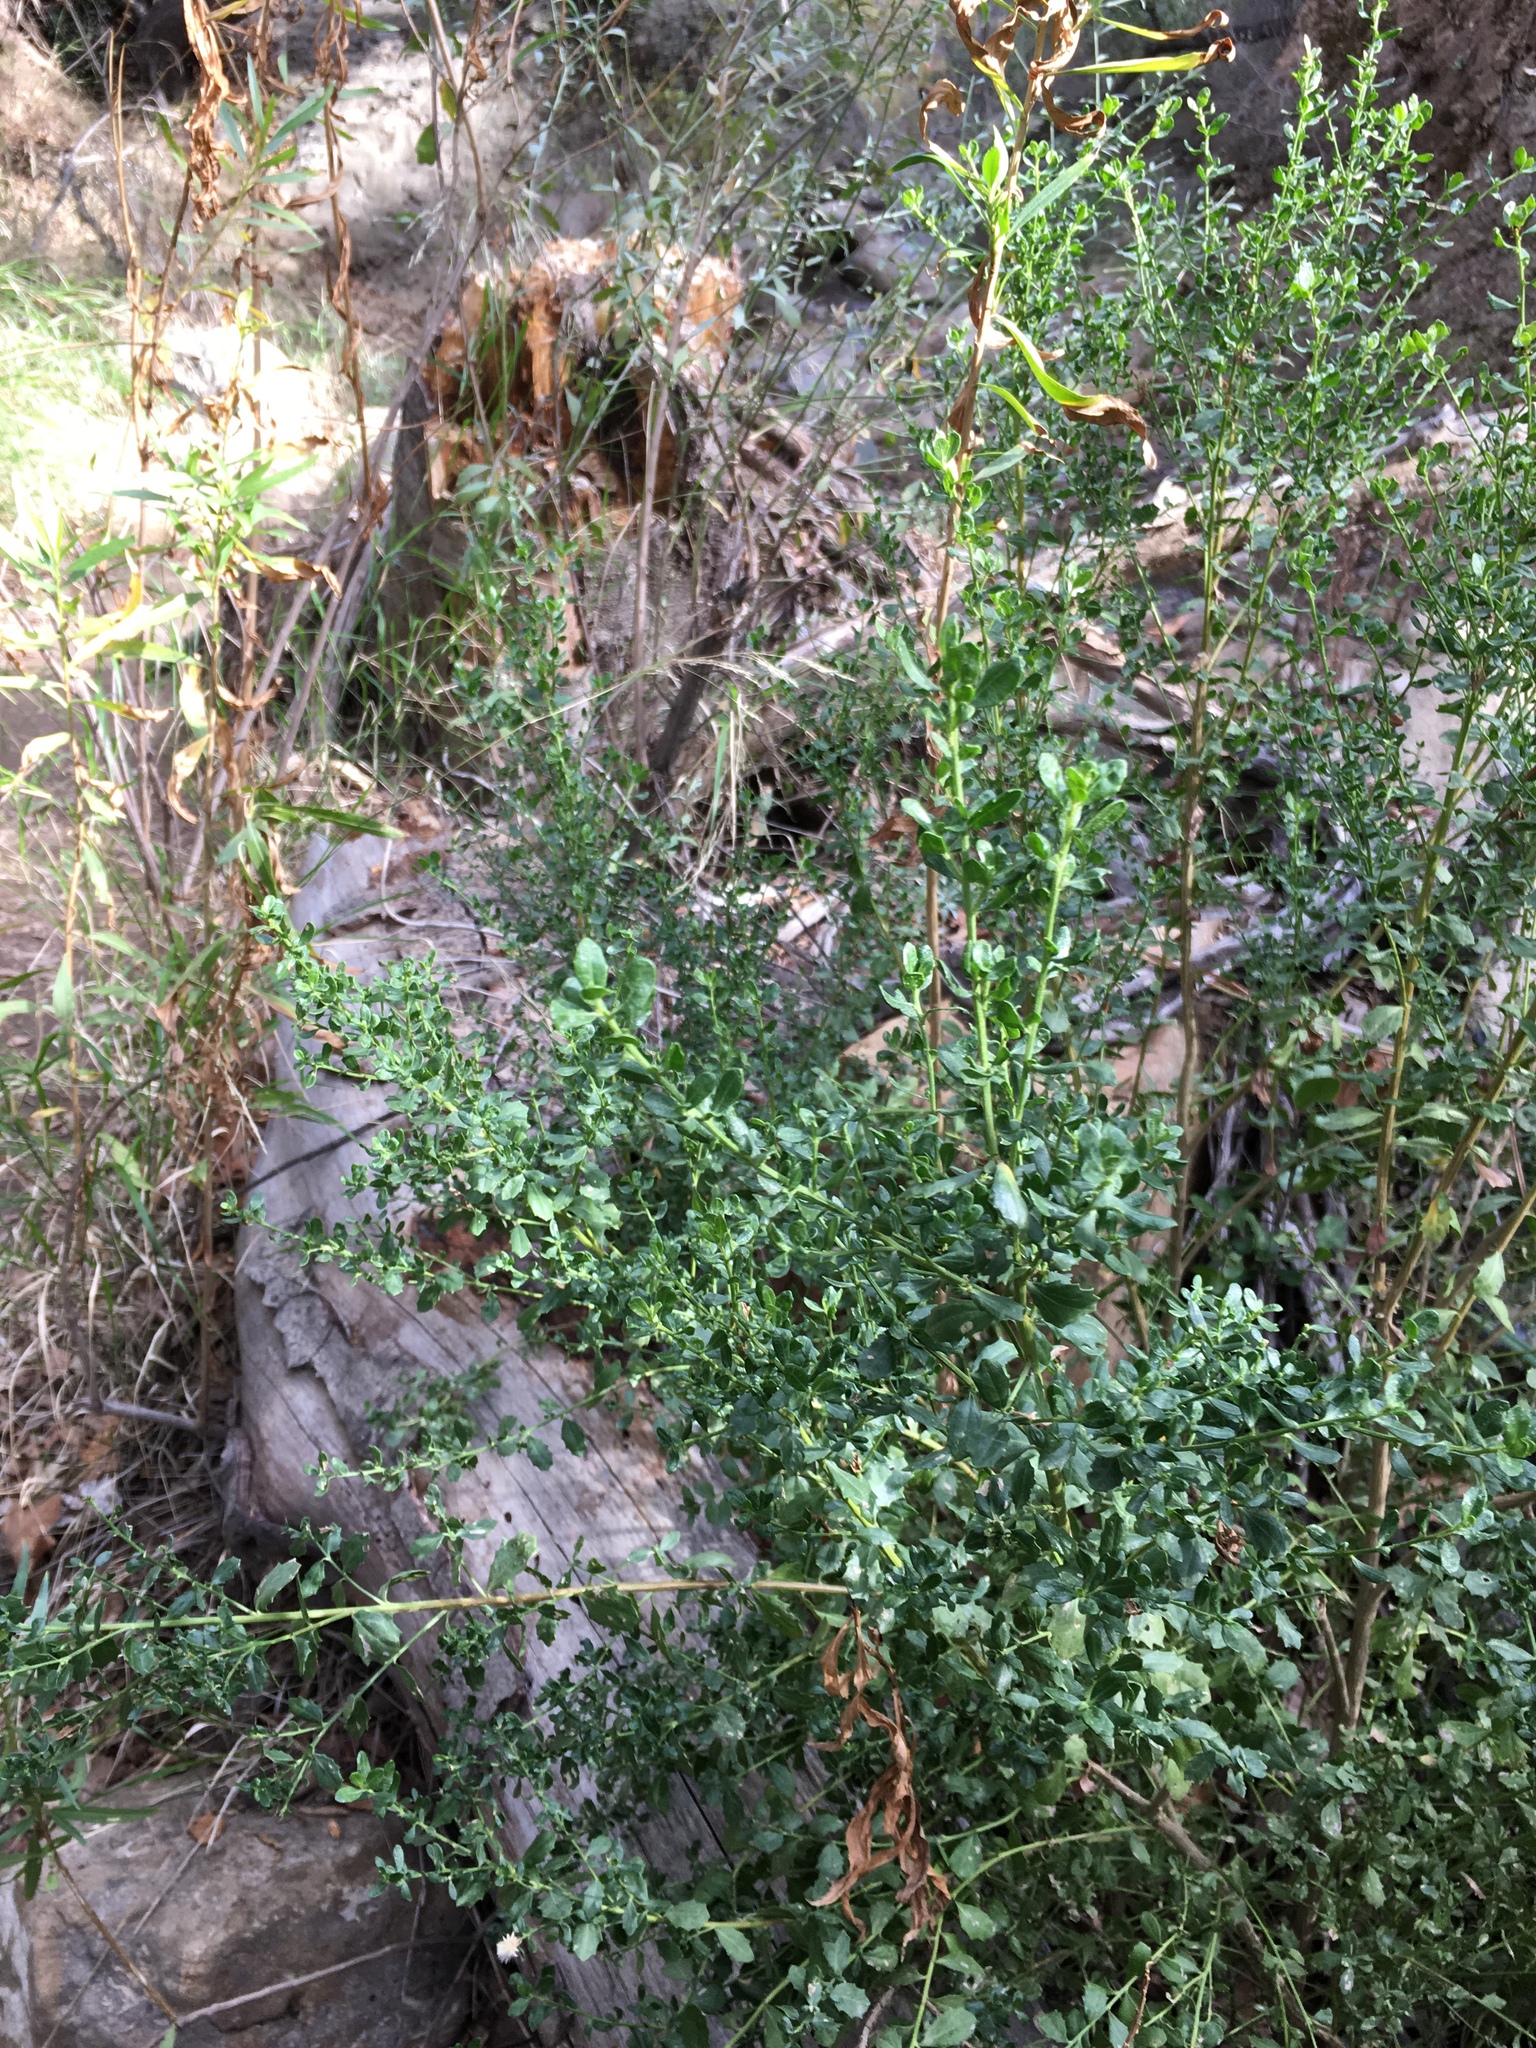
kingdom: Plantae
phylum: Tracheophyta
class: Magnoliopsida
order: Asterales
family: Asteraceae
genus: Baccharis
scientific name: Baccharis pilularis
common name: Coyotebrush
